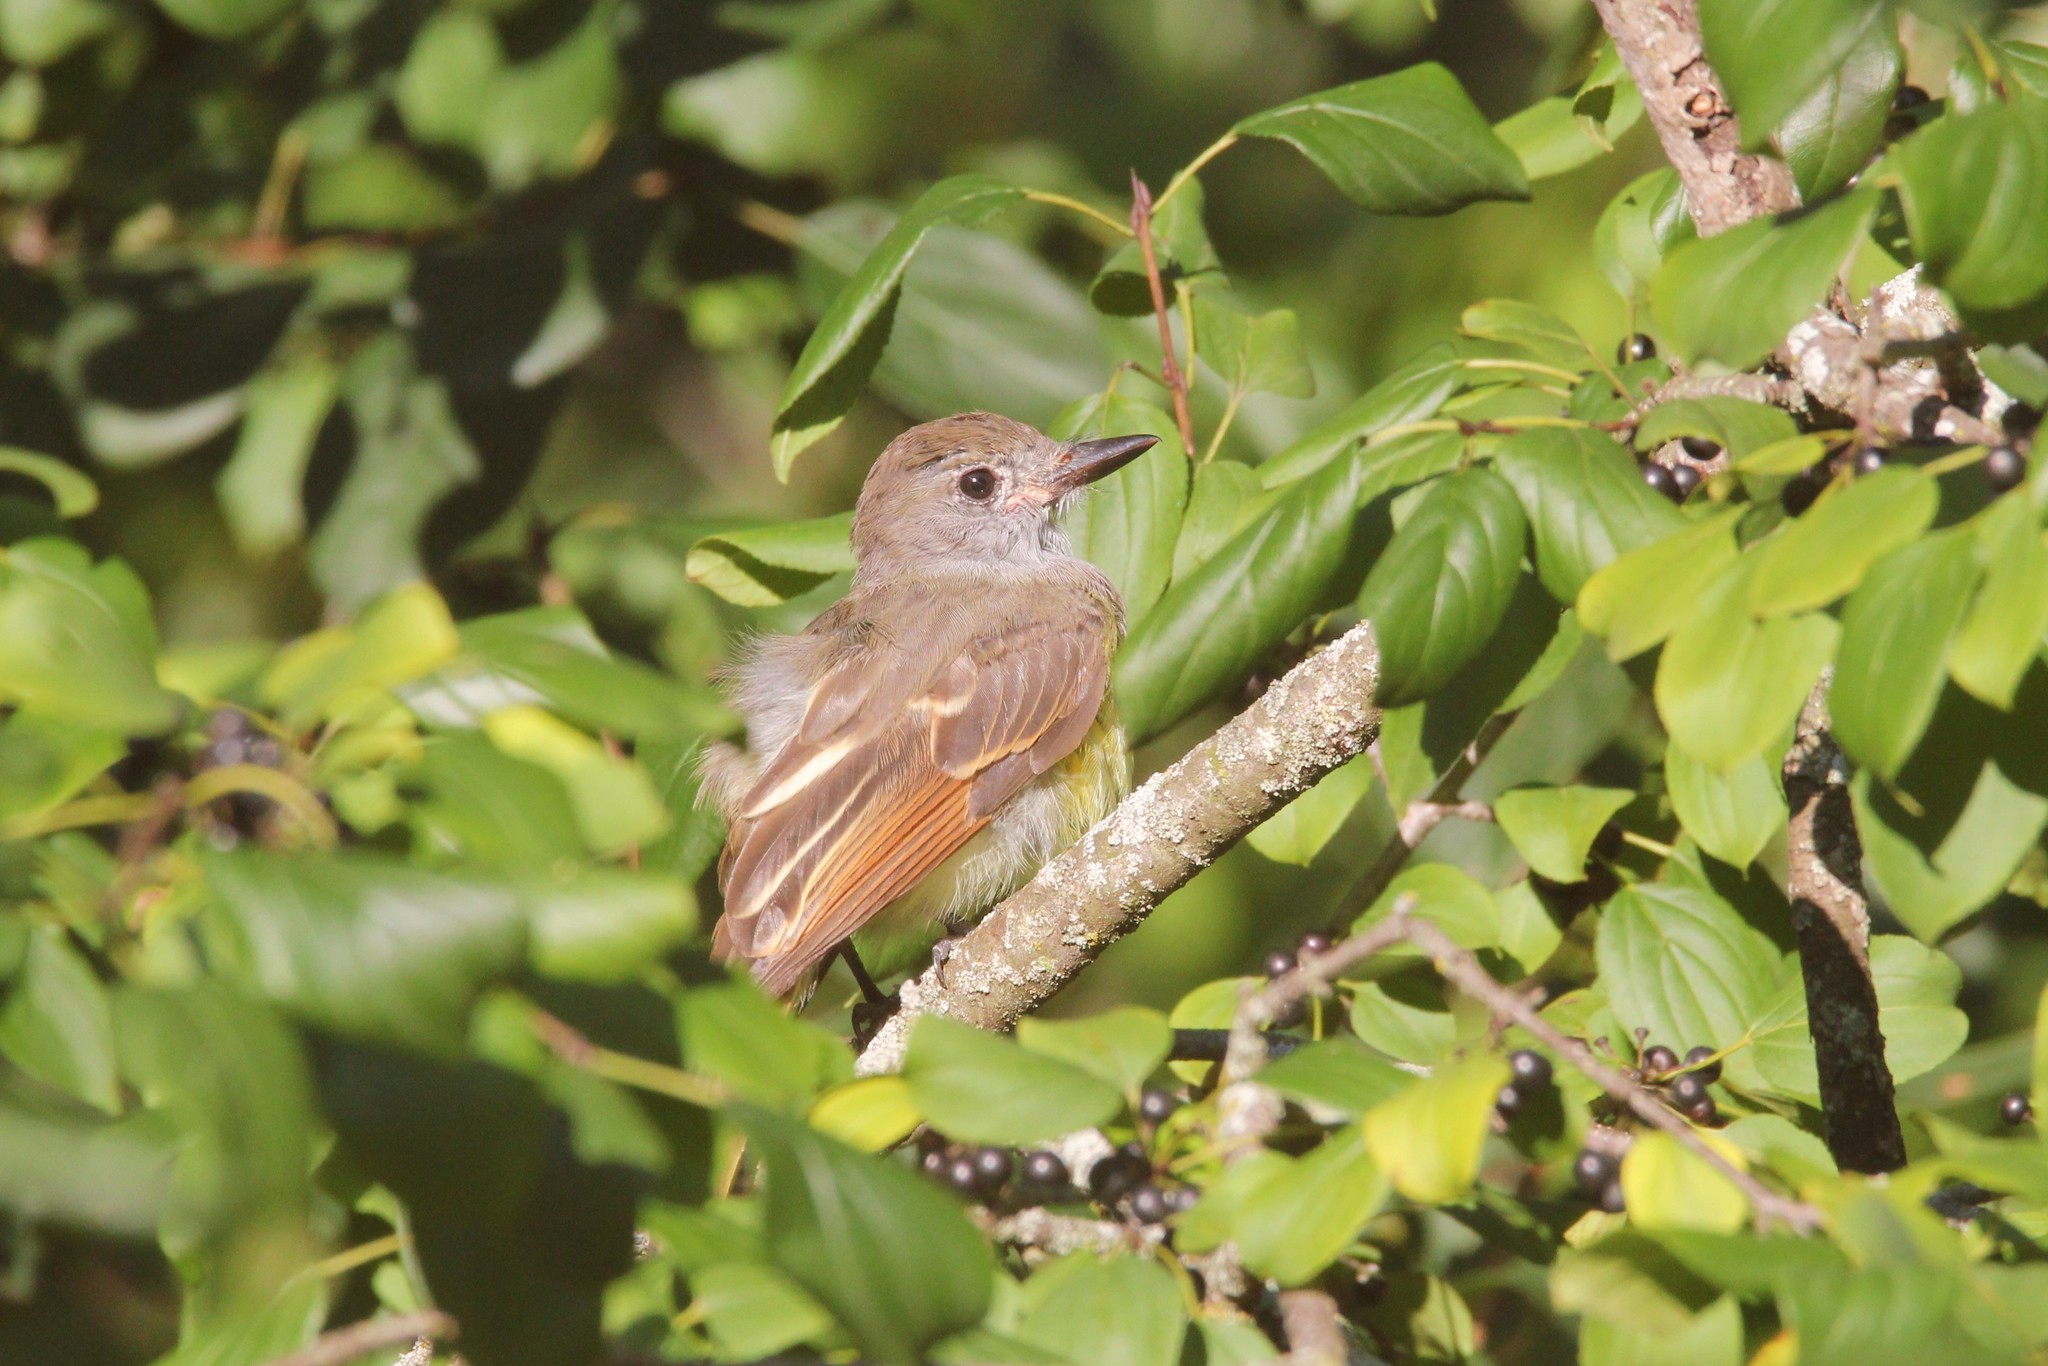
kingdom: Animalia
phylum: Chordata
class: Aves
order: Passeriformes
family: Tyrannidae
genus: Myiarchus
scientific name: Myiarchus crinitus
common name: Great crested flycatcher
